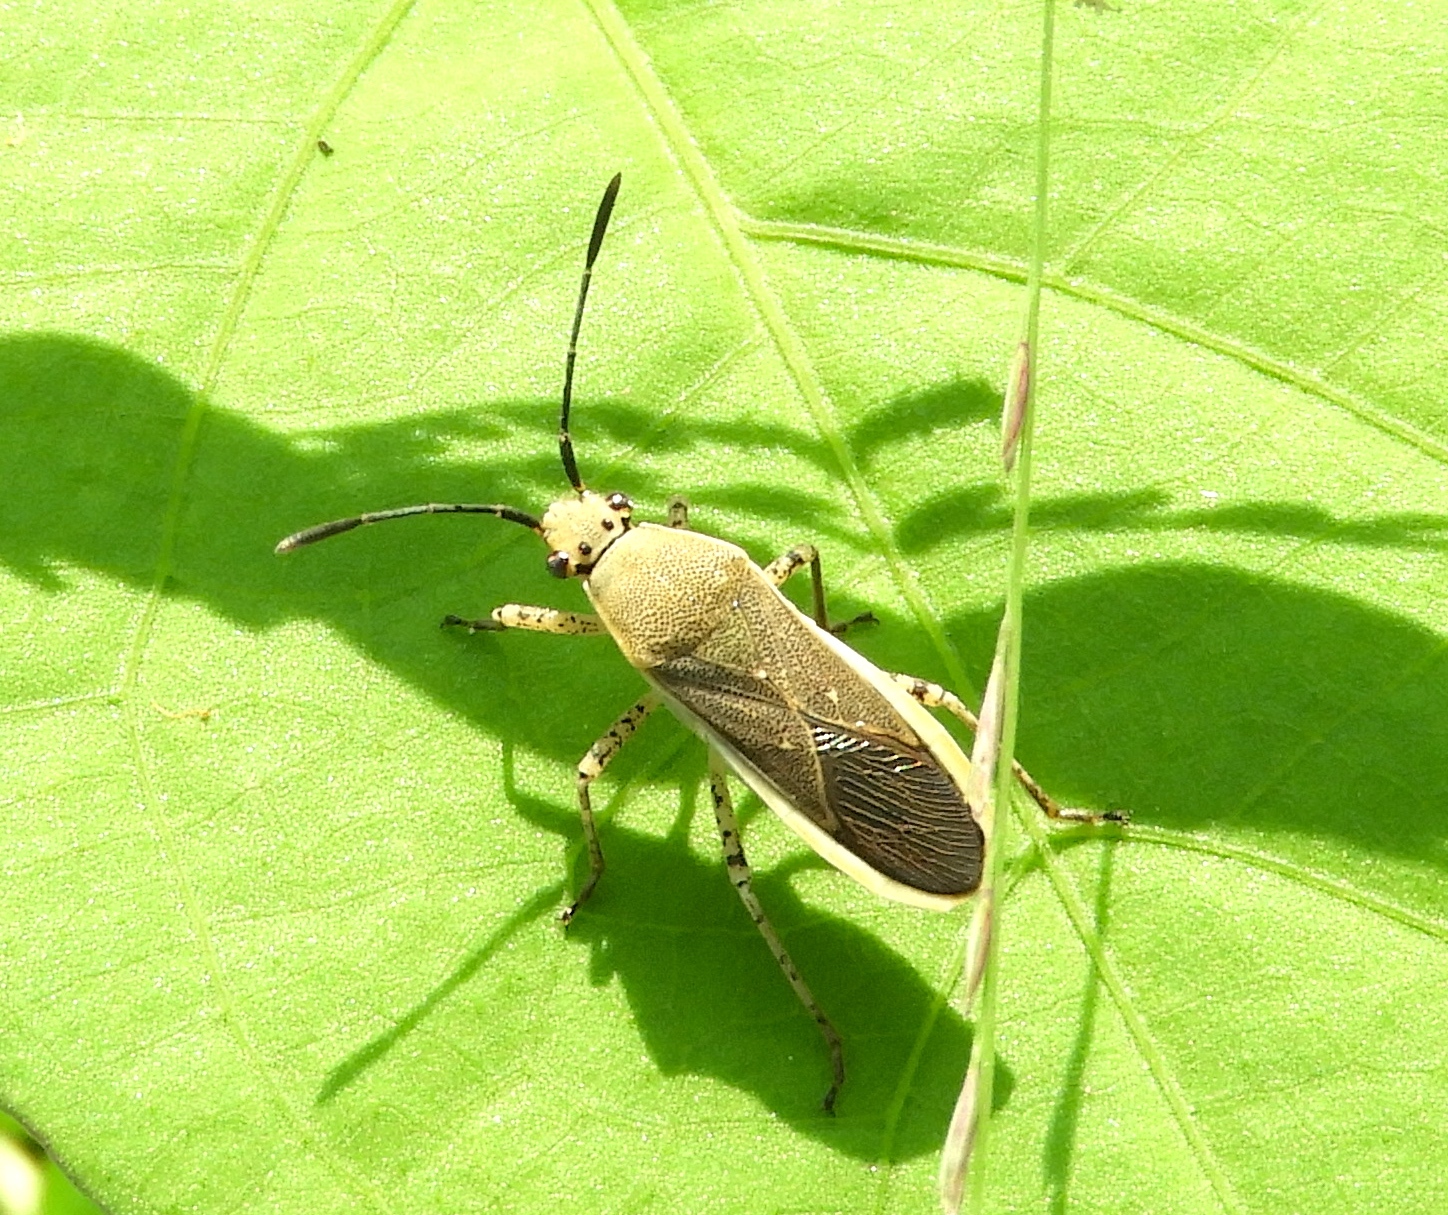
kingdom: Animalia
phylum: Arthropoda
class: Insecta
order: Hemiptera
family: Coreidae
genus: Catorhintha
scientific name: Catorhintha selector
